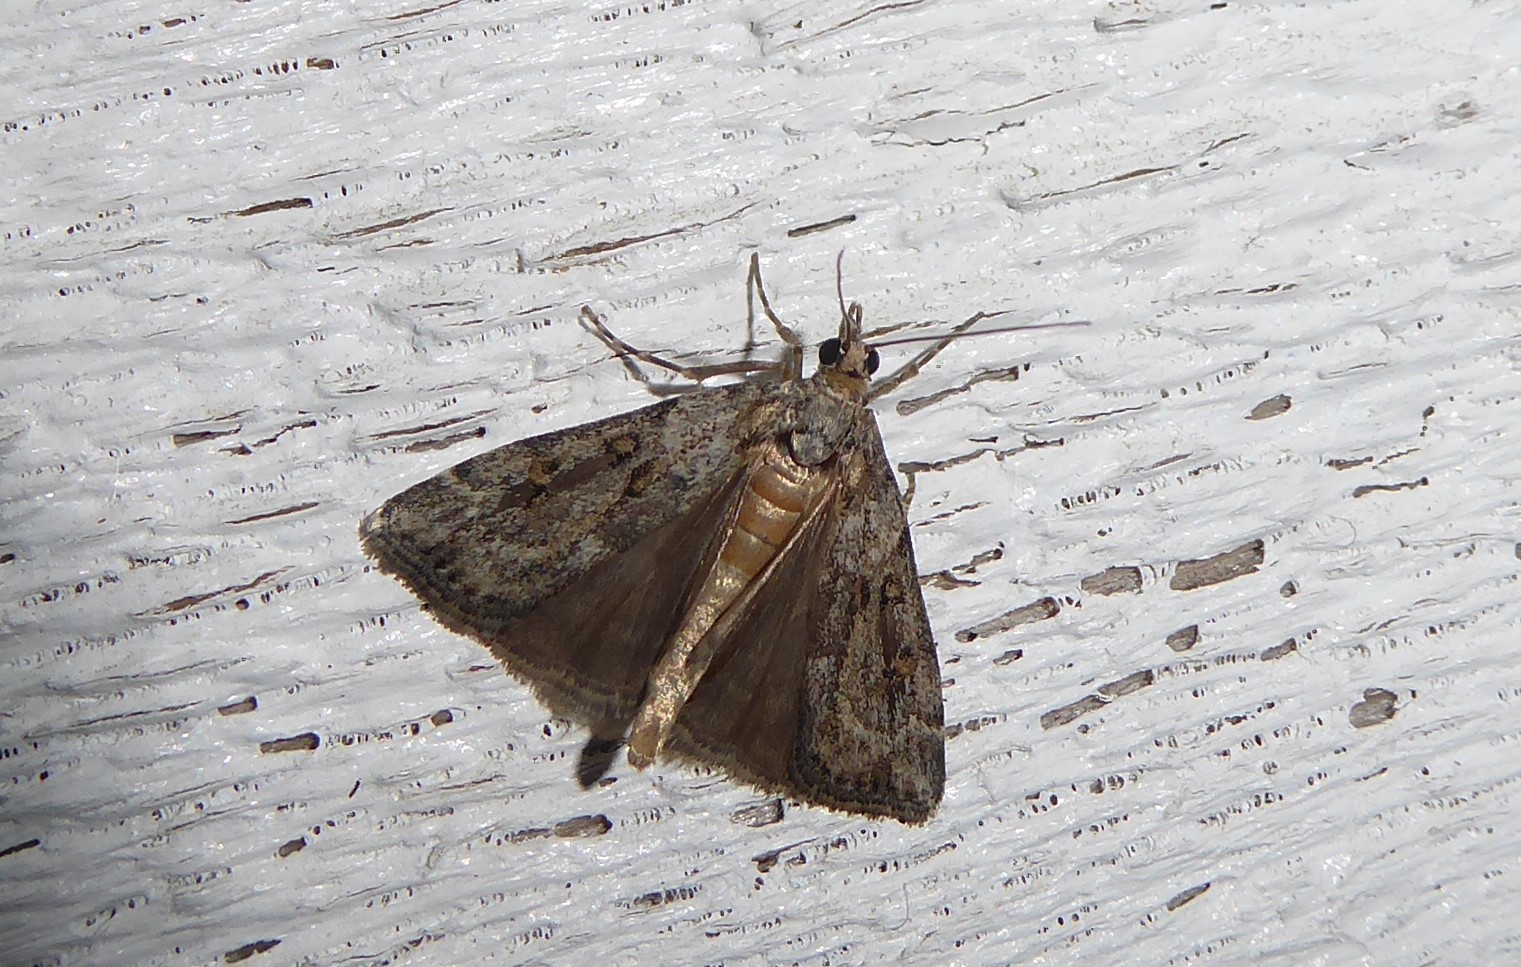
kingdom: Animalia
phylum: Arthropoda
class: Insecta
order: Lepidoptera
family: Crambidae
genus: Eudonia
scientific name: Eudonia diphtheralis
